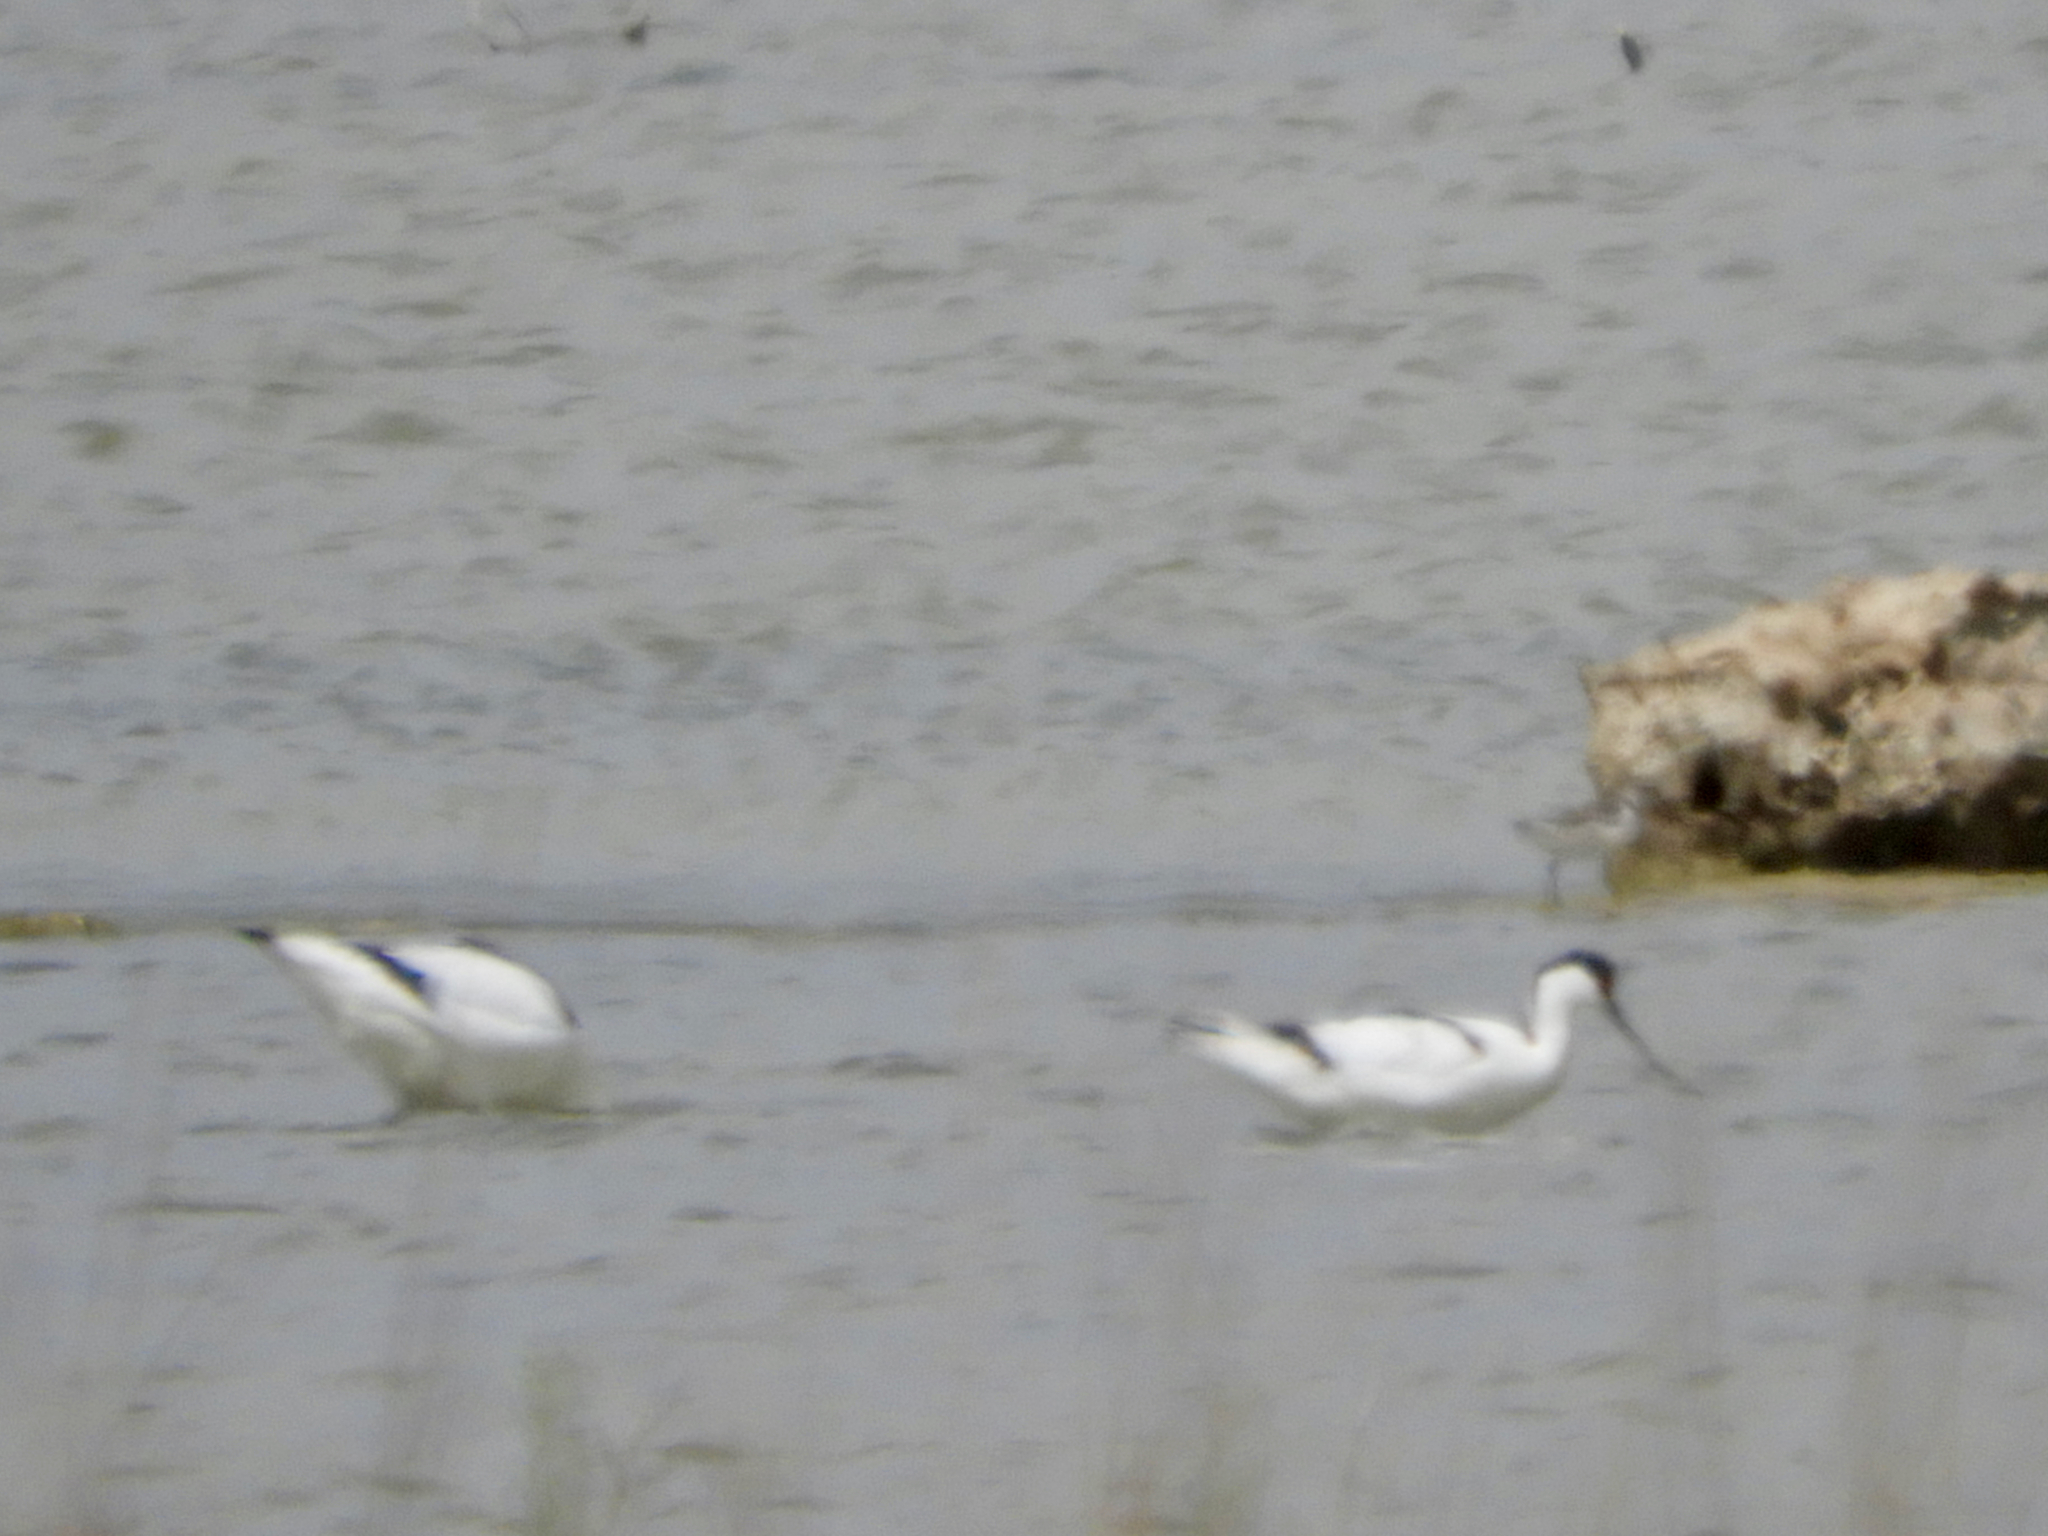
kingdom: Animalia
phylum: Chordata
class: Aves
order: Charadriiformes
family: Recurvirostridae
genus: Recurvirostra
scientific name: Recurvirostra avosetta
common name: Pied avocet
